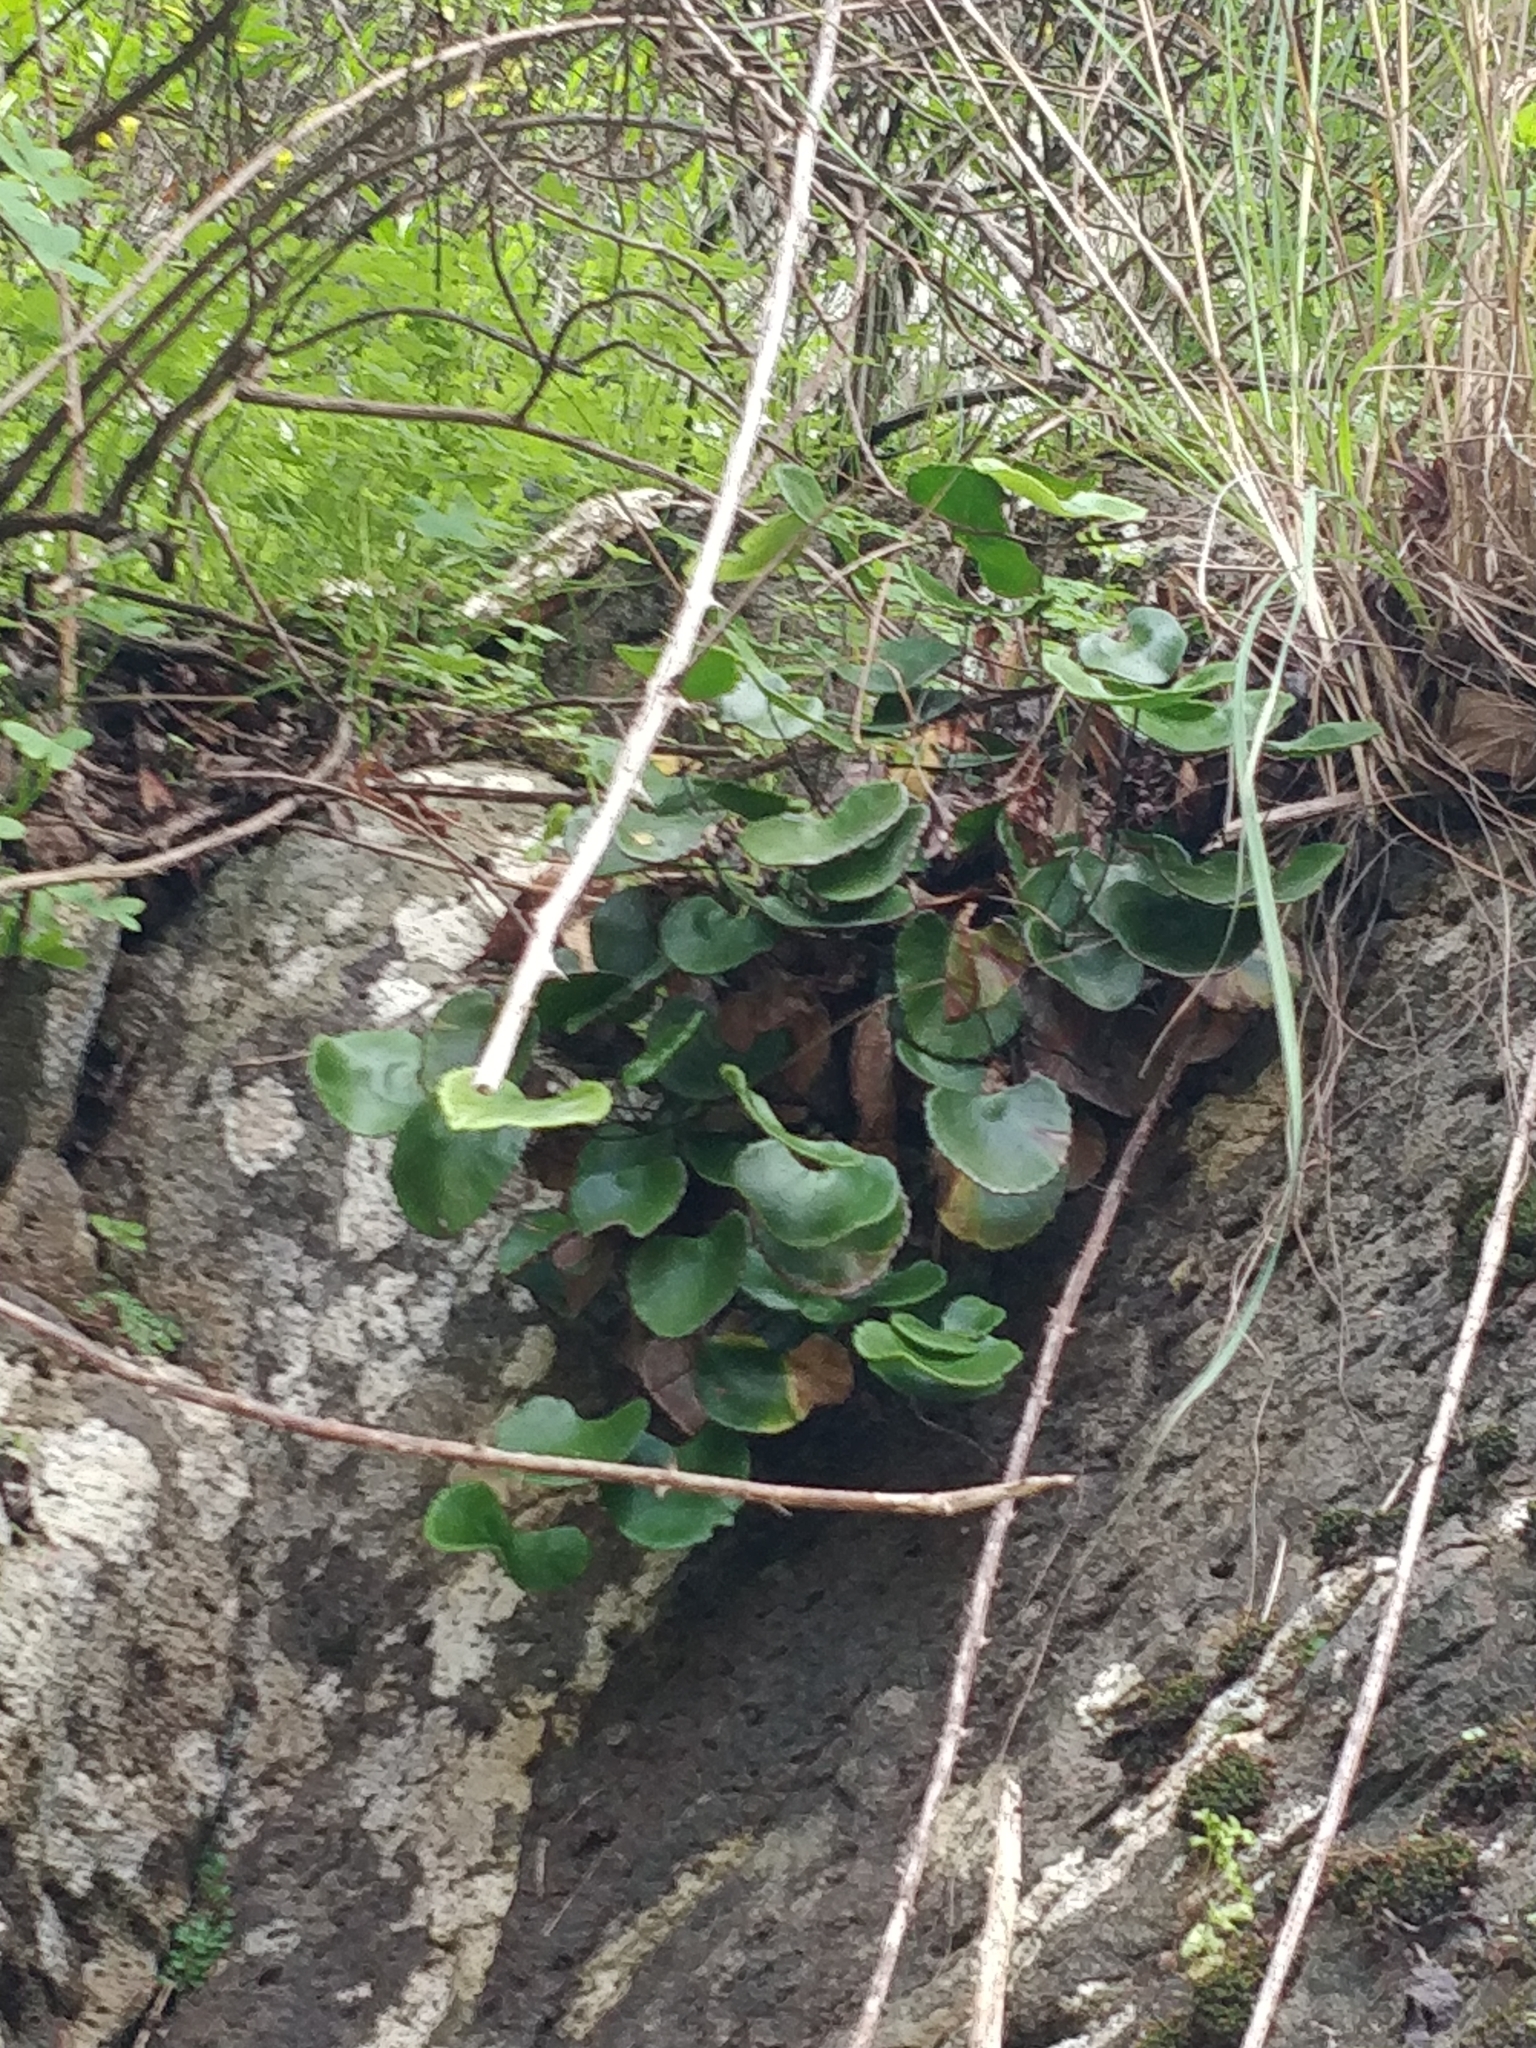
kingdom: Plantae
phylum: Tracheophyta
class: Polypodiopsida
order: Polypodiales
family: Pteridaceae
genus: Adiantum
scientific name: Adiantum reniforme
